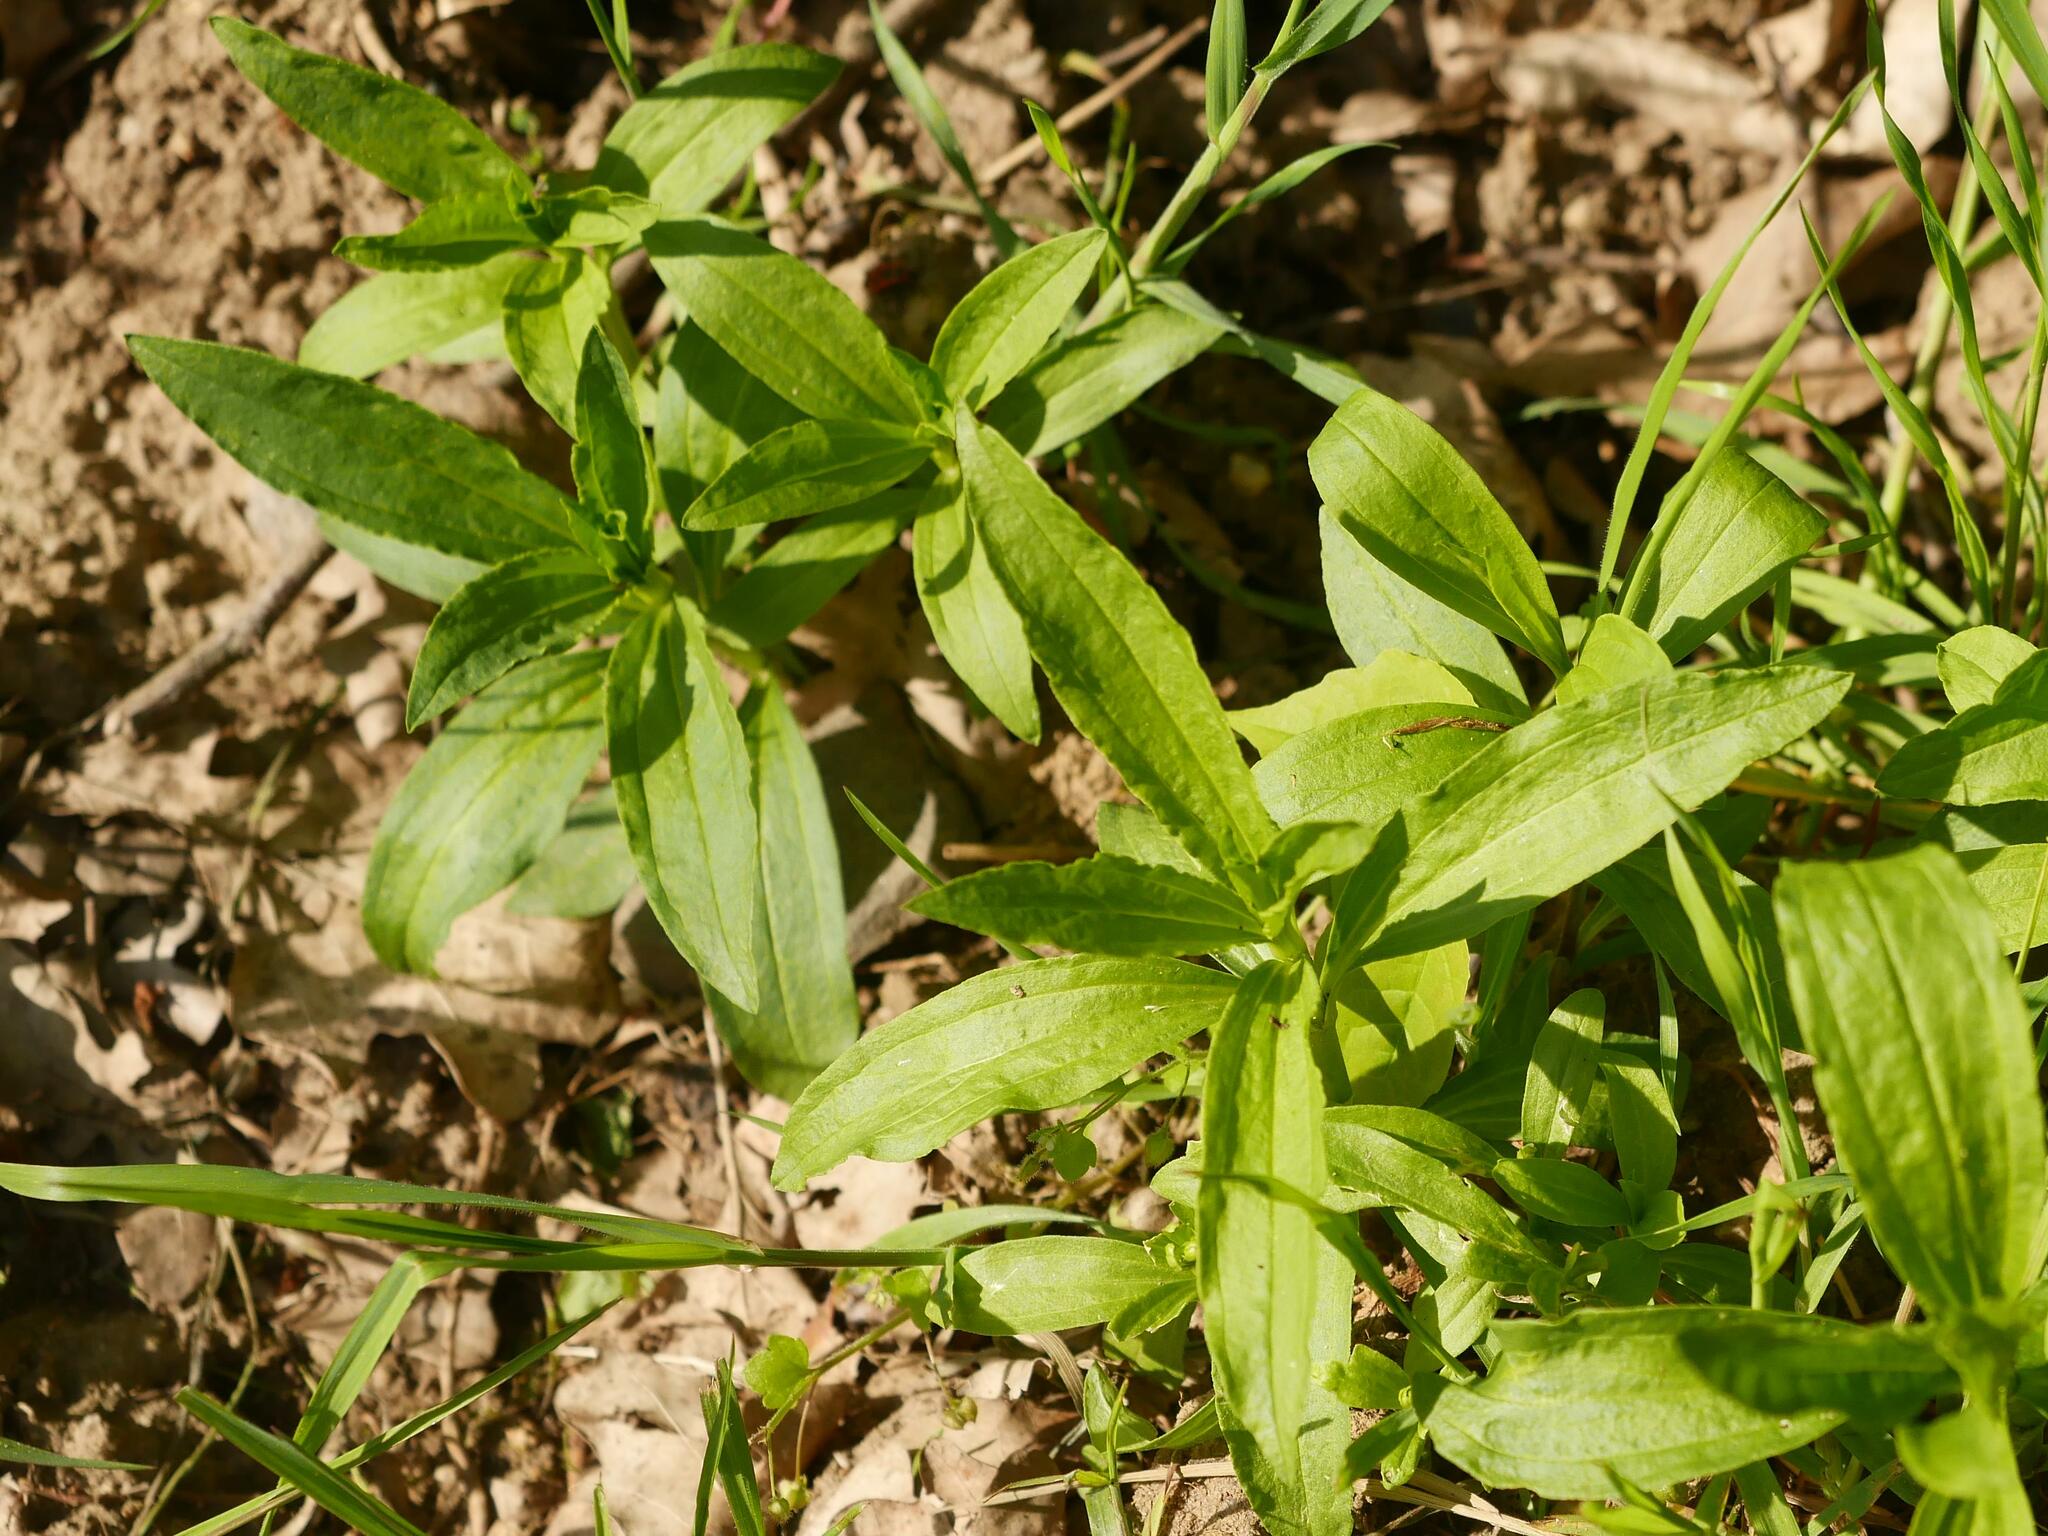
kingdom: Plantae
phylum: Tracheophyta
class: Magnoliopsida
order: Caryophyllales
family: Caryophyllaceae
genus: Saponaria
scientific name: Saponaria officinalis
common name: Soapwort
